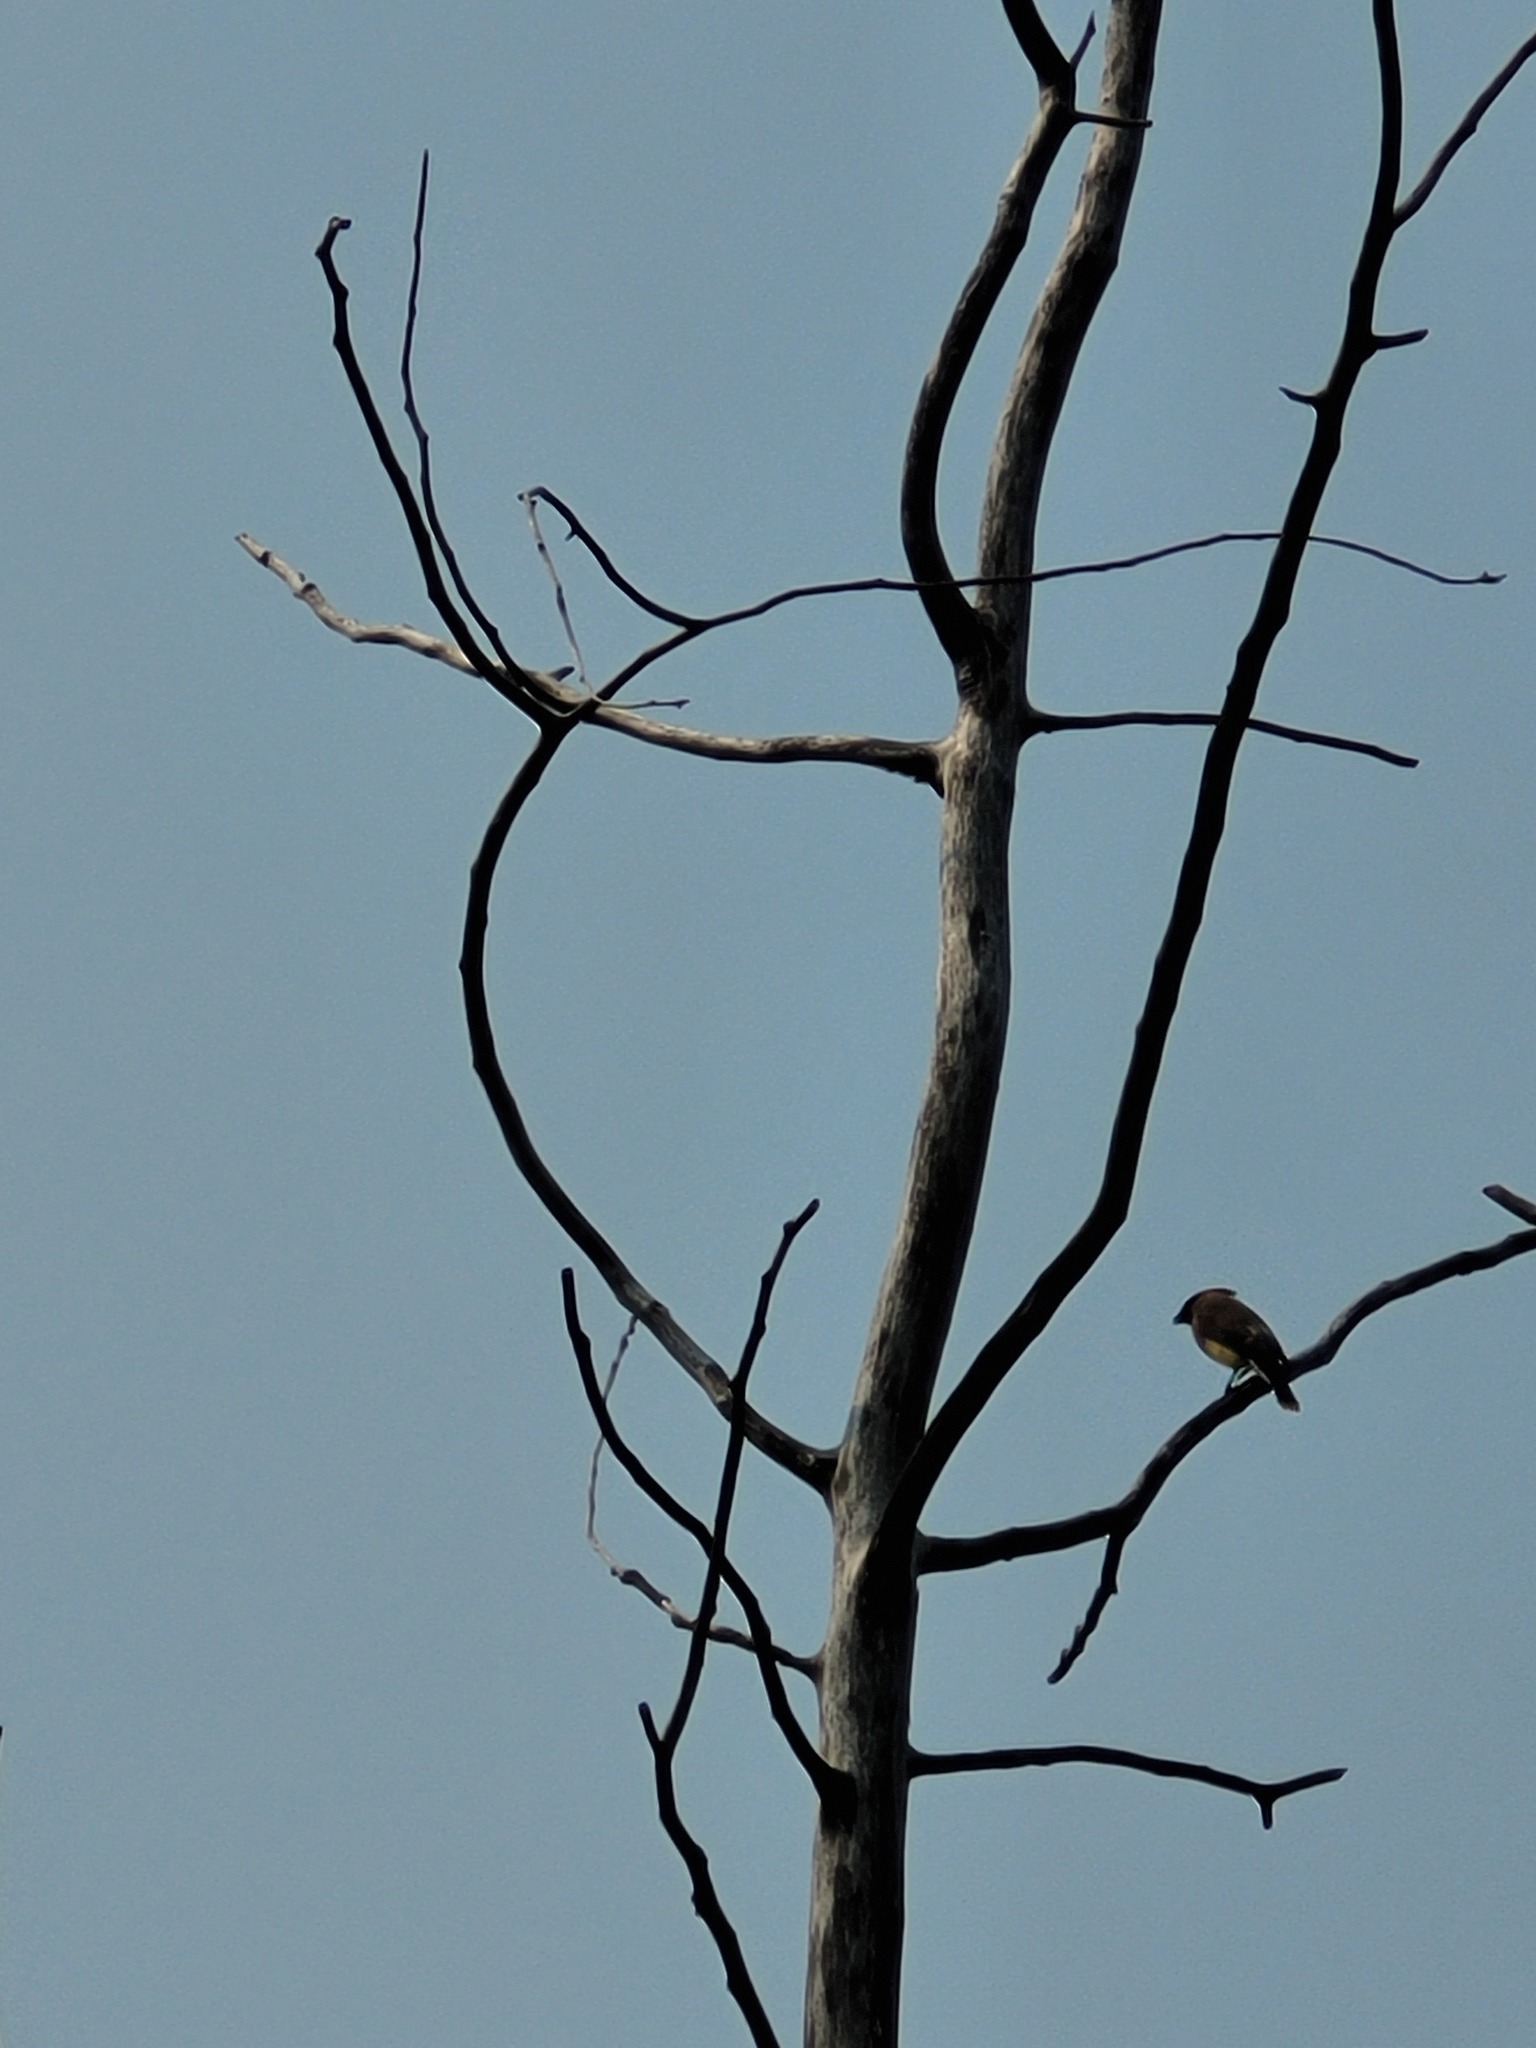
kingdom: Animalia
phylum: Chordata
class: Aves
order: Passeriformes
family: Bombycillidae
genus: Bombycilla
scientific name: Bombycilla cedrorum
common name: Cedar waxwing
